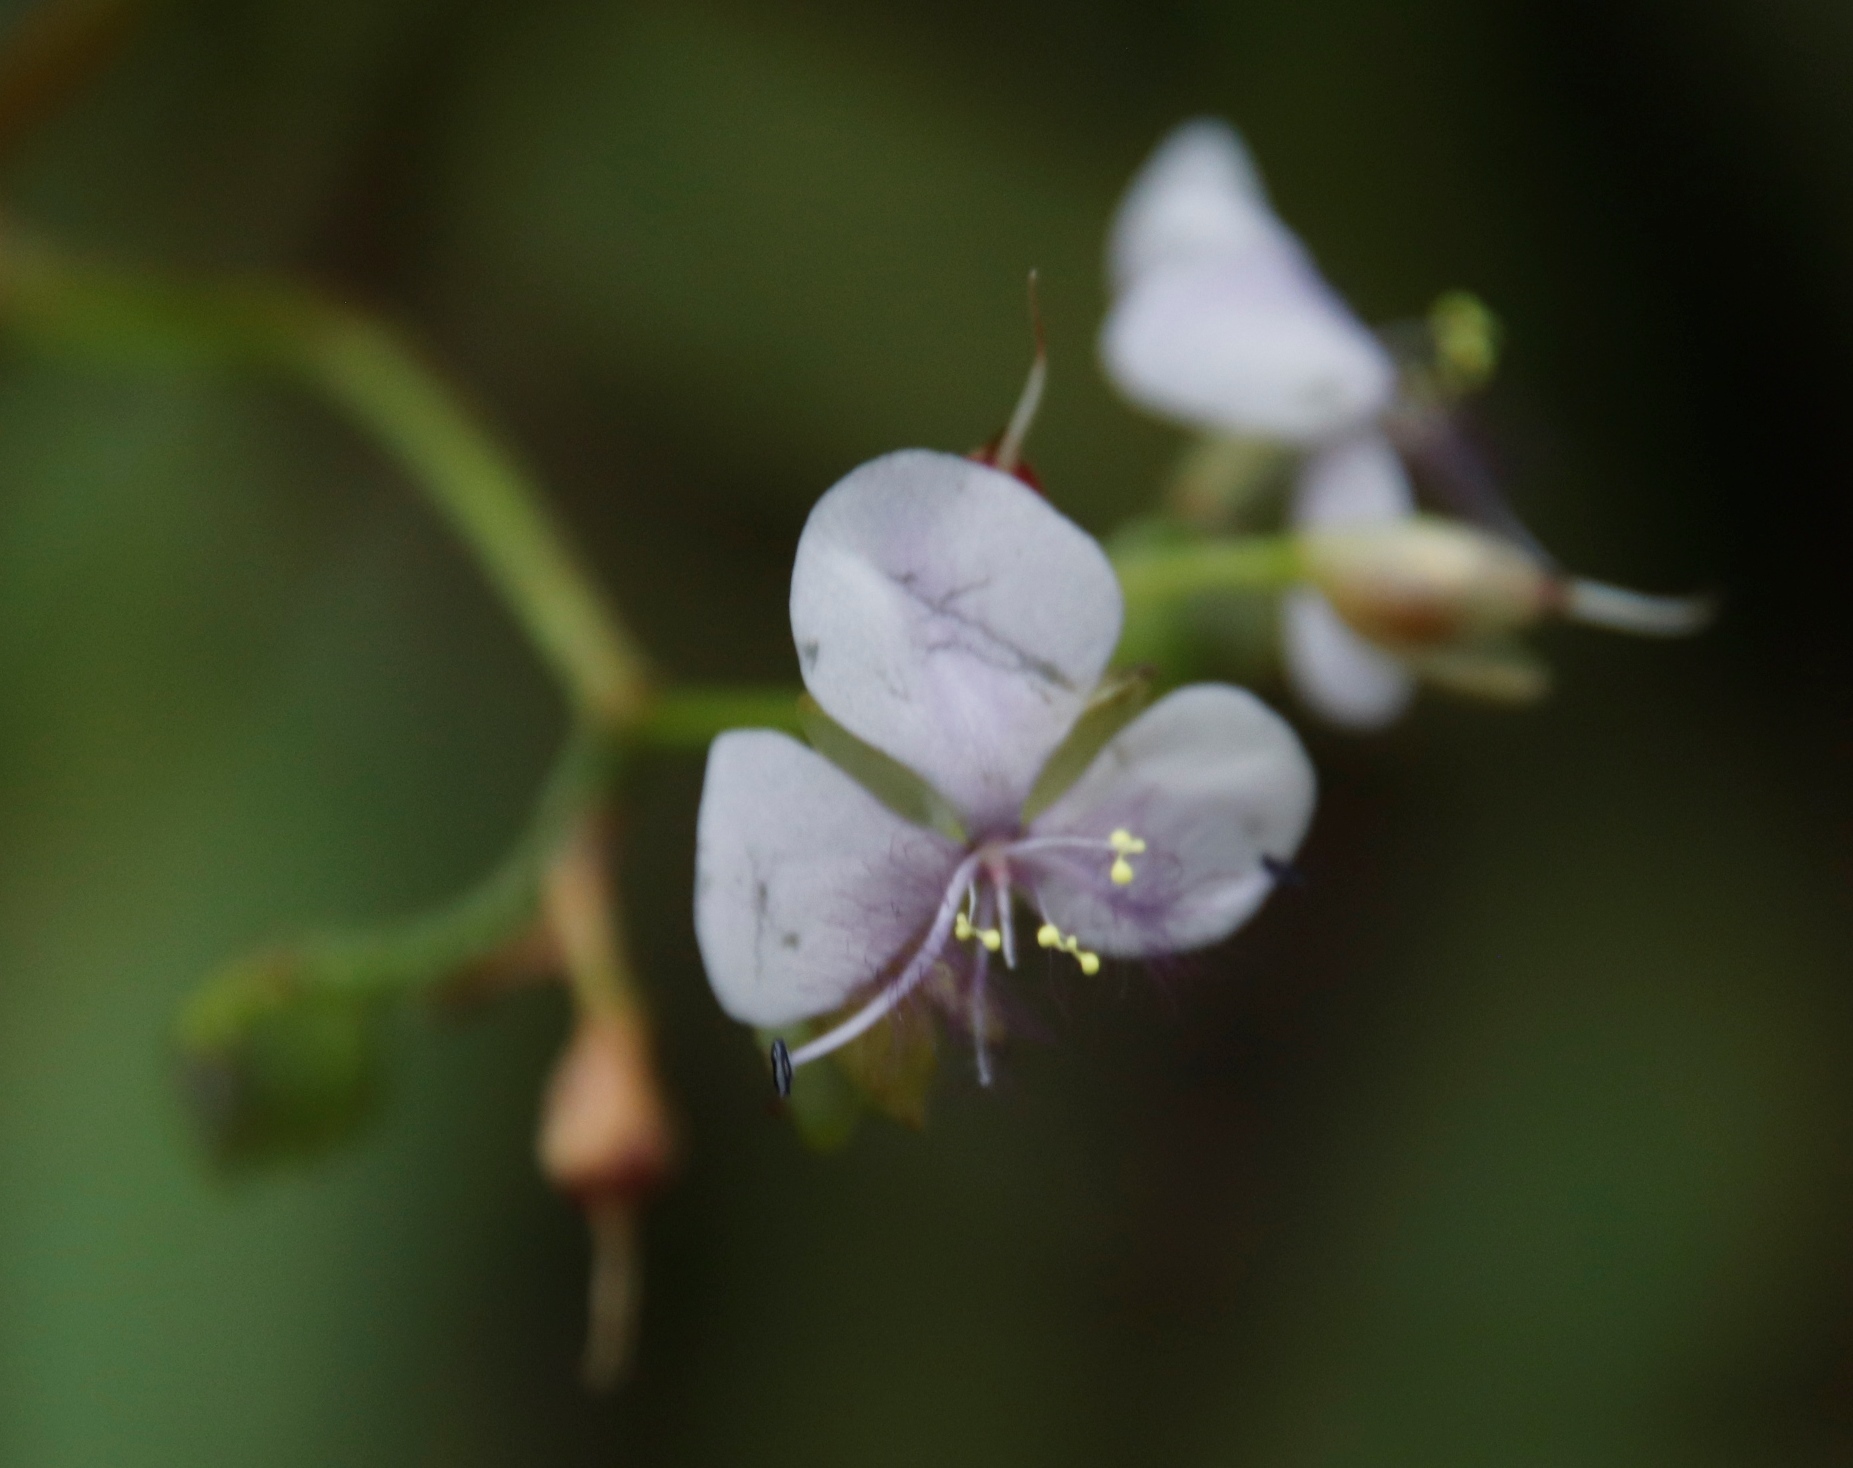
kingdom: Plantae
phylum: Tracheophyta
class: Liliopsida
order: Commelinales
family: Commelinaceae
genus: Murdannia
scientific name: Murdannia simplex
